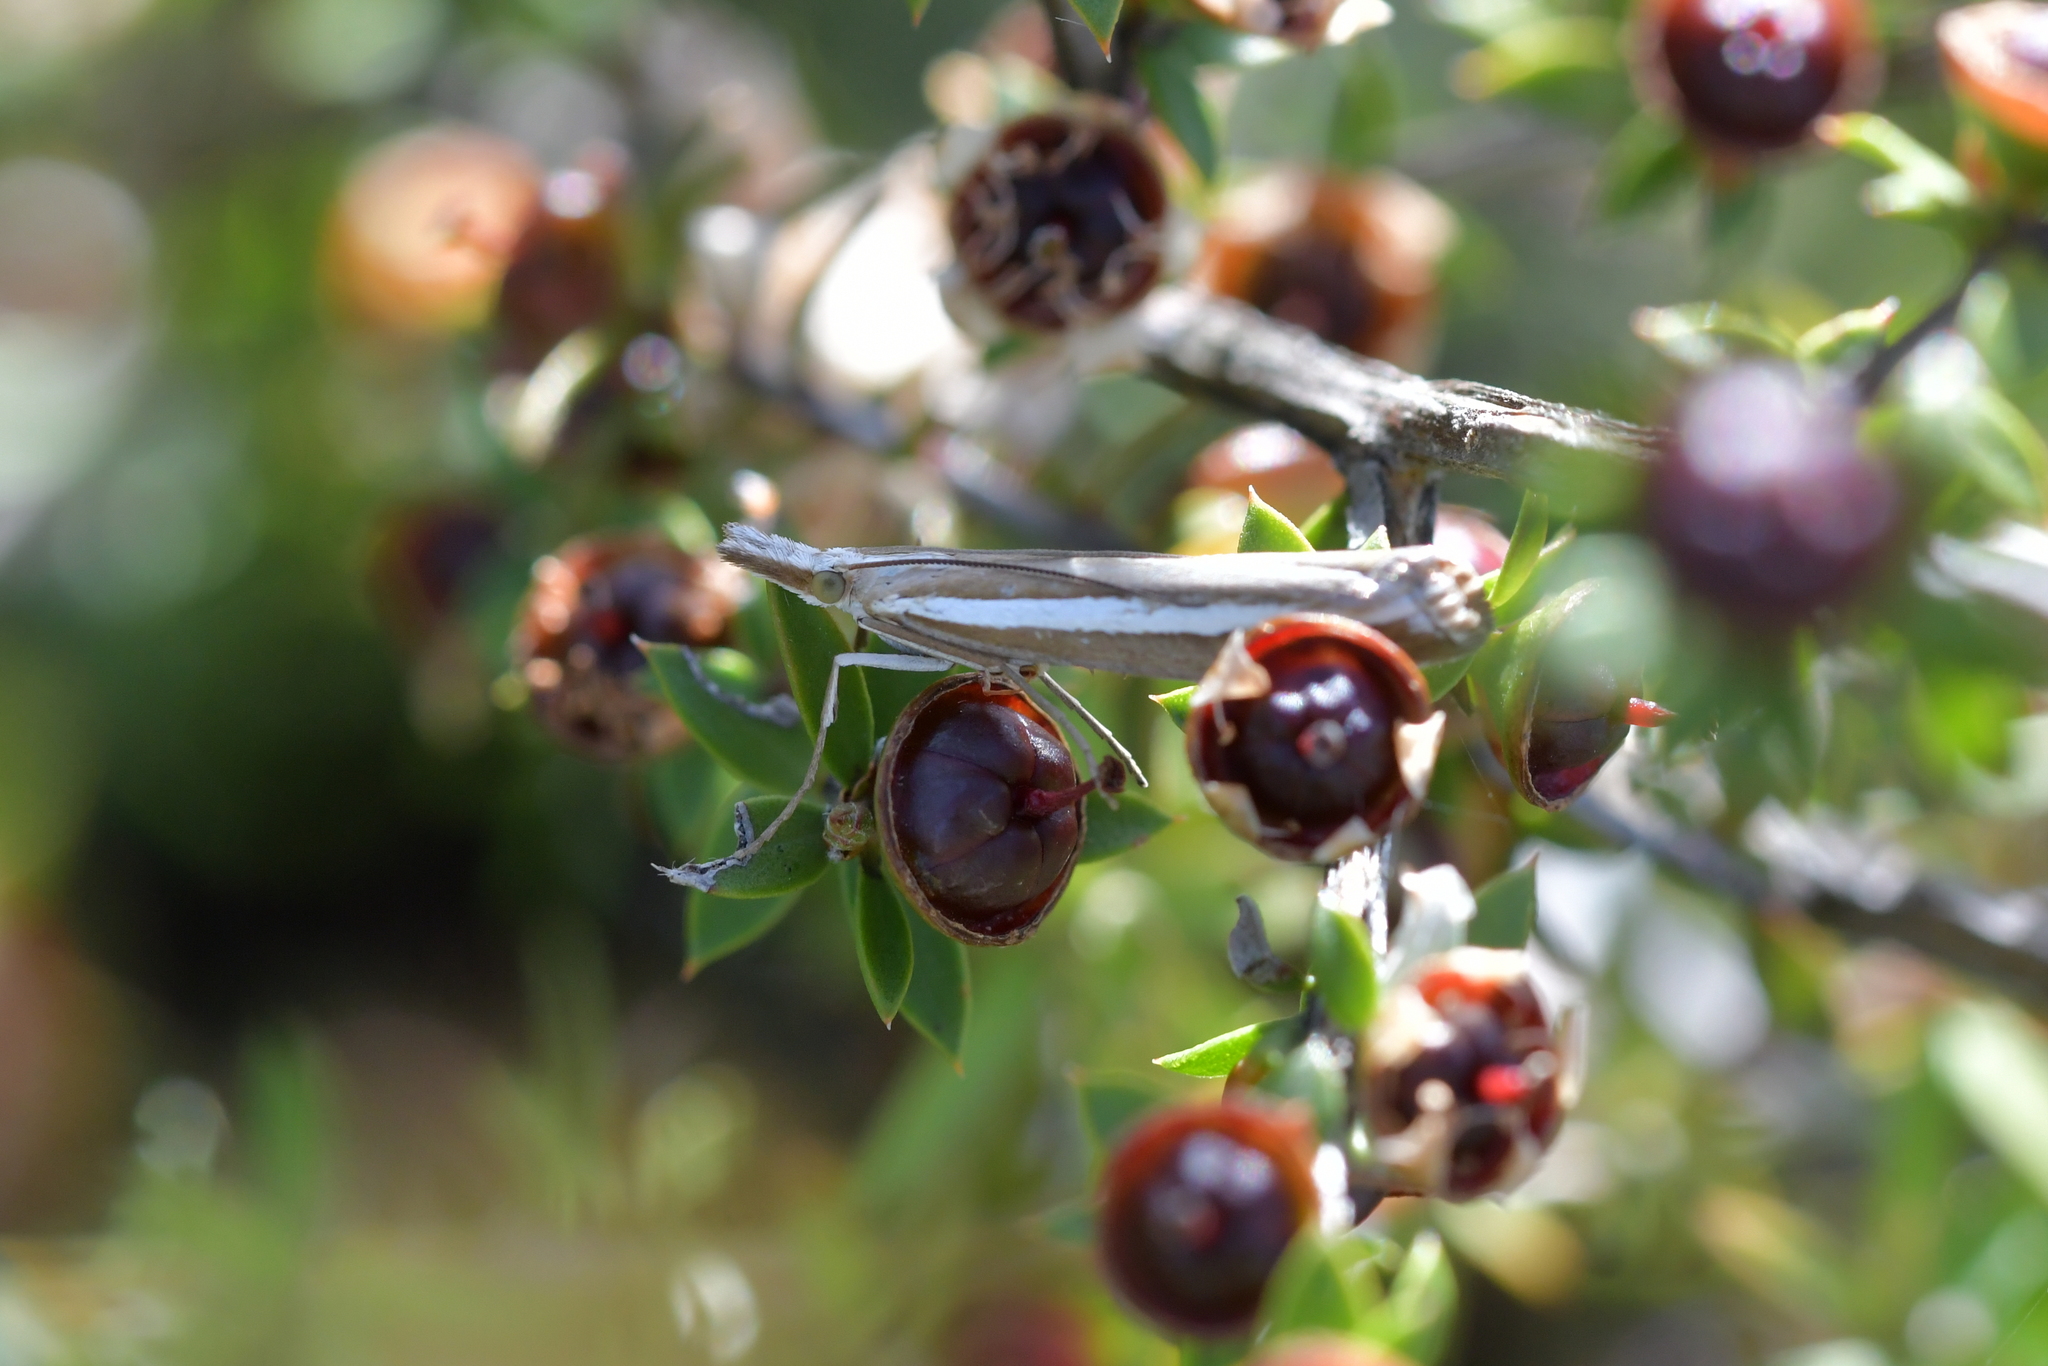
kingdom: Animalia
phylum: Arthropoda
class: Insecta
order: Lepidoptera
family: Crambidae
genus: Orocrambus
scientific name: Orocrambus vittellus
